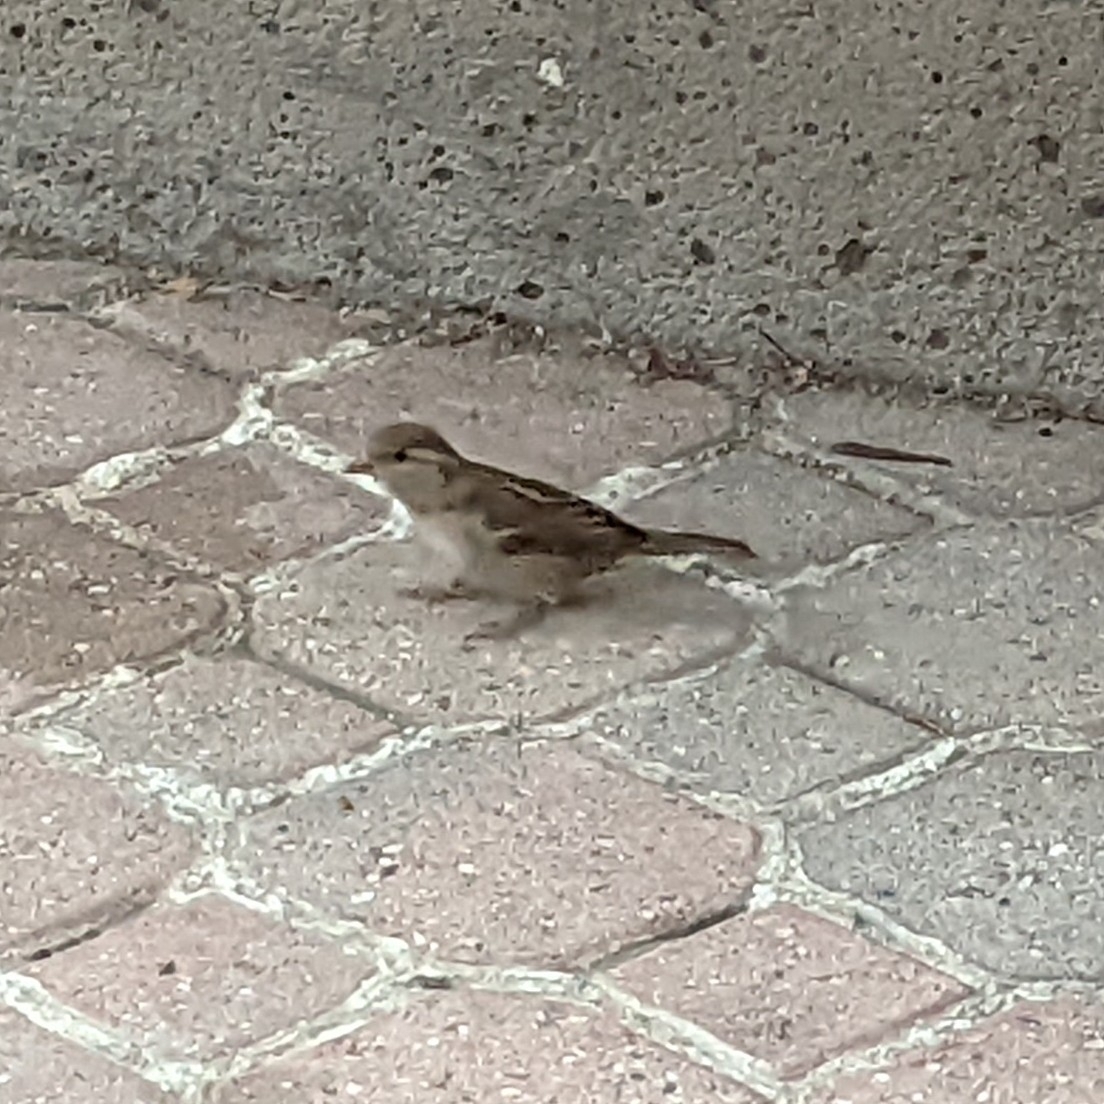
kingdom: Animalia
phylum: Chordata
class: Aves
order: Passeriformes
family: Passeridae
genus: Passer
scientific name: Passer domesticus
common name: House sparrow
